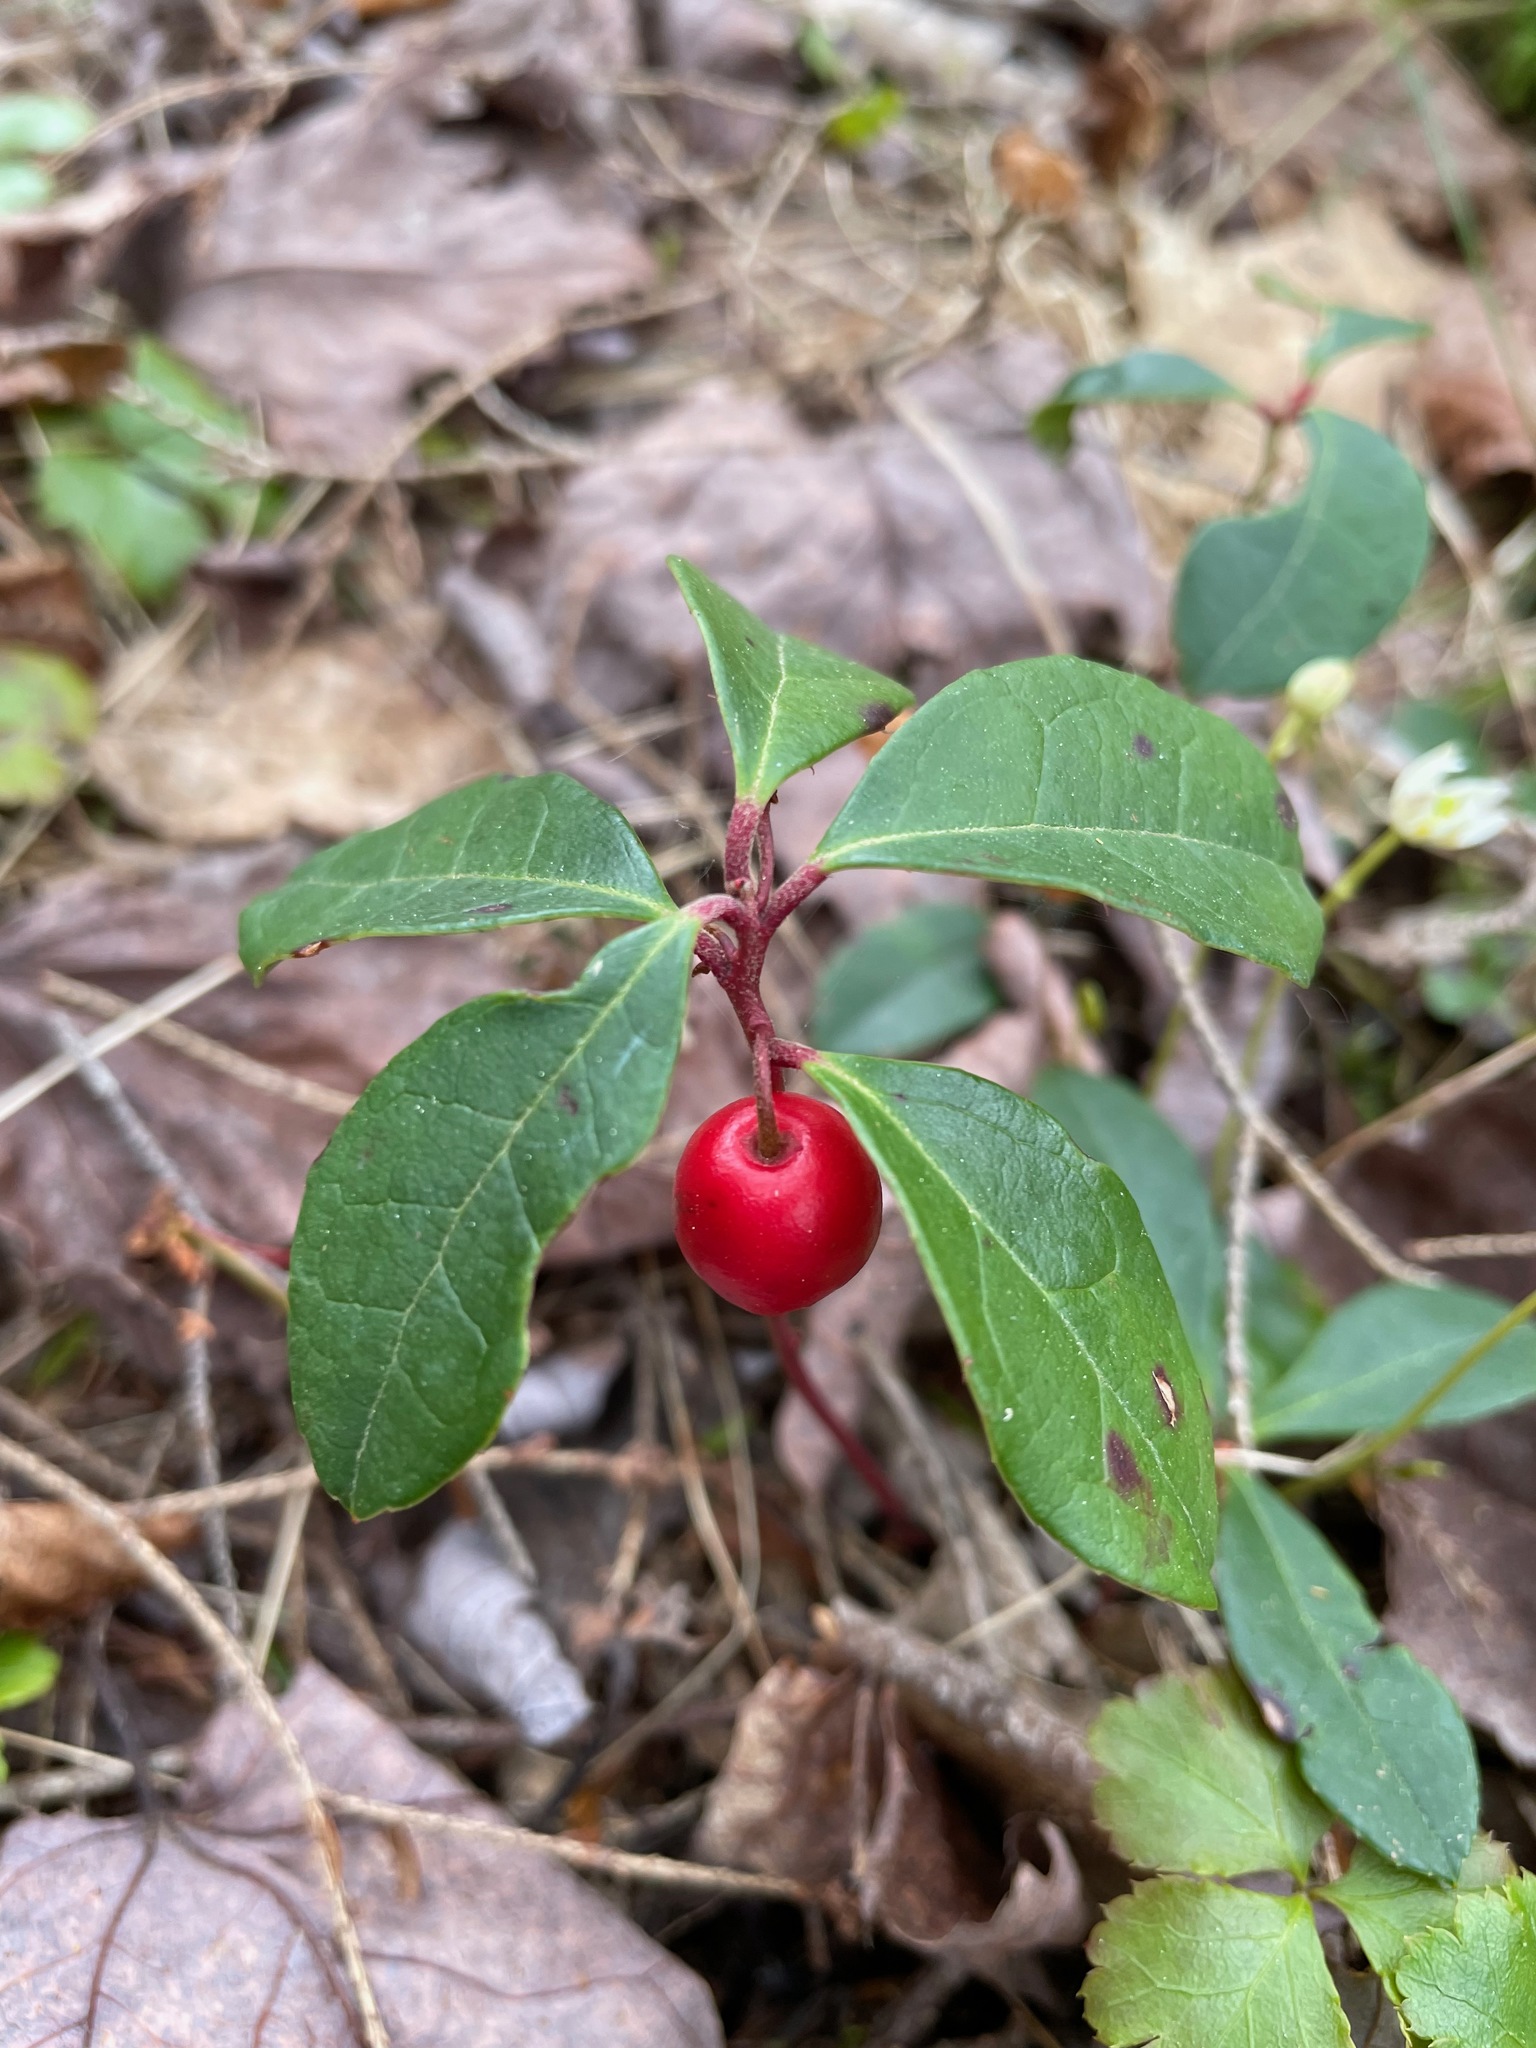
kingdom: Plantae
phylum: Tracheophyta
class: Magnoliopsida
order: Ericales
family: Ericaceae
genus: Gaultheria
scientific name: Gaultheria procumbens
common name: Checkerberry
